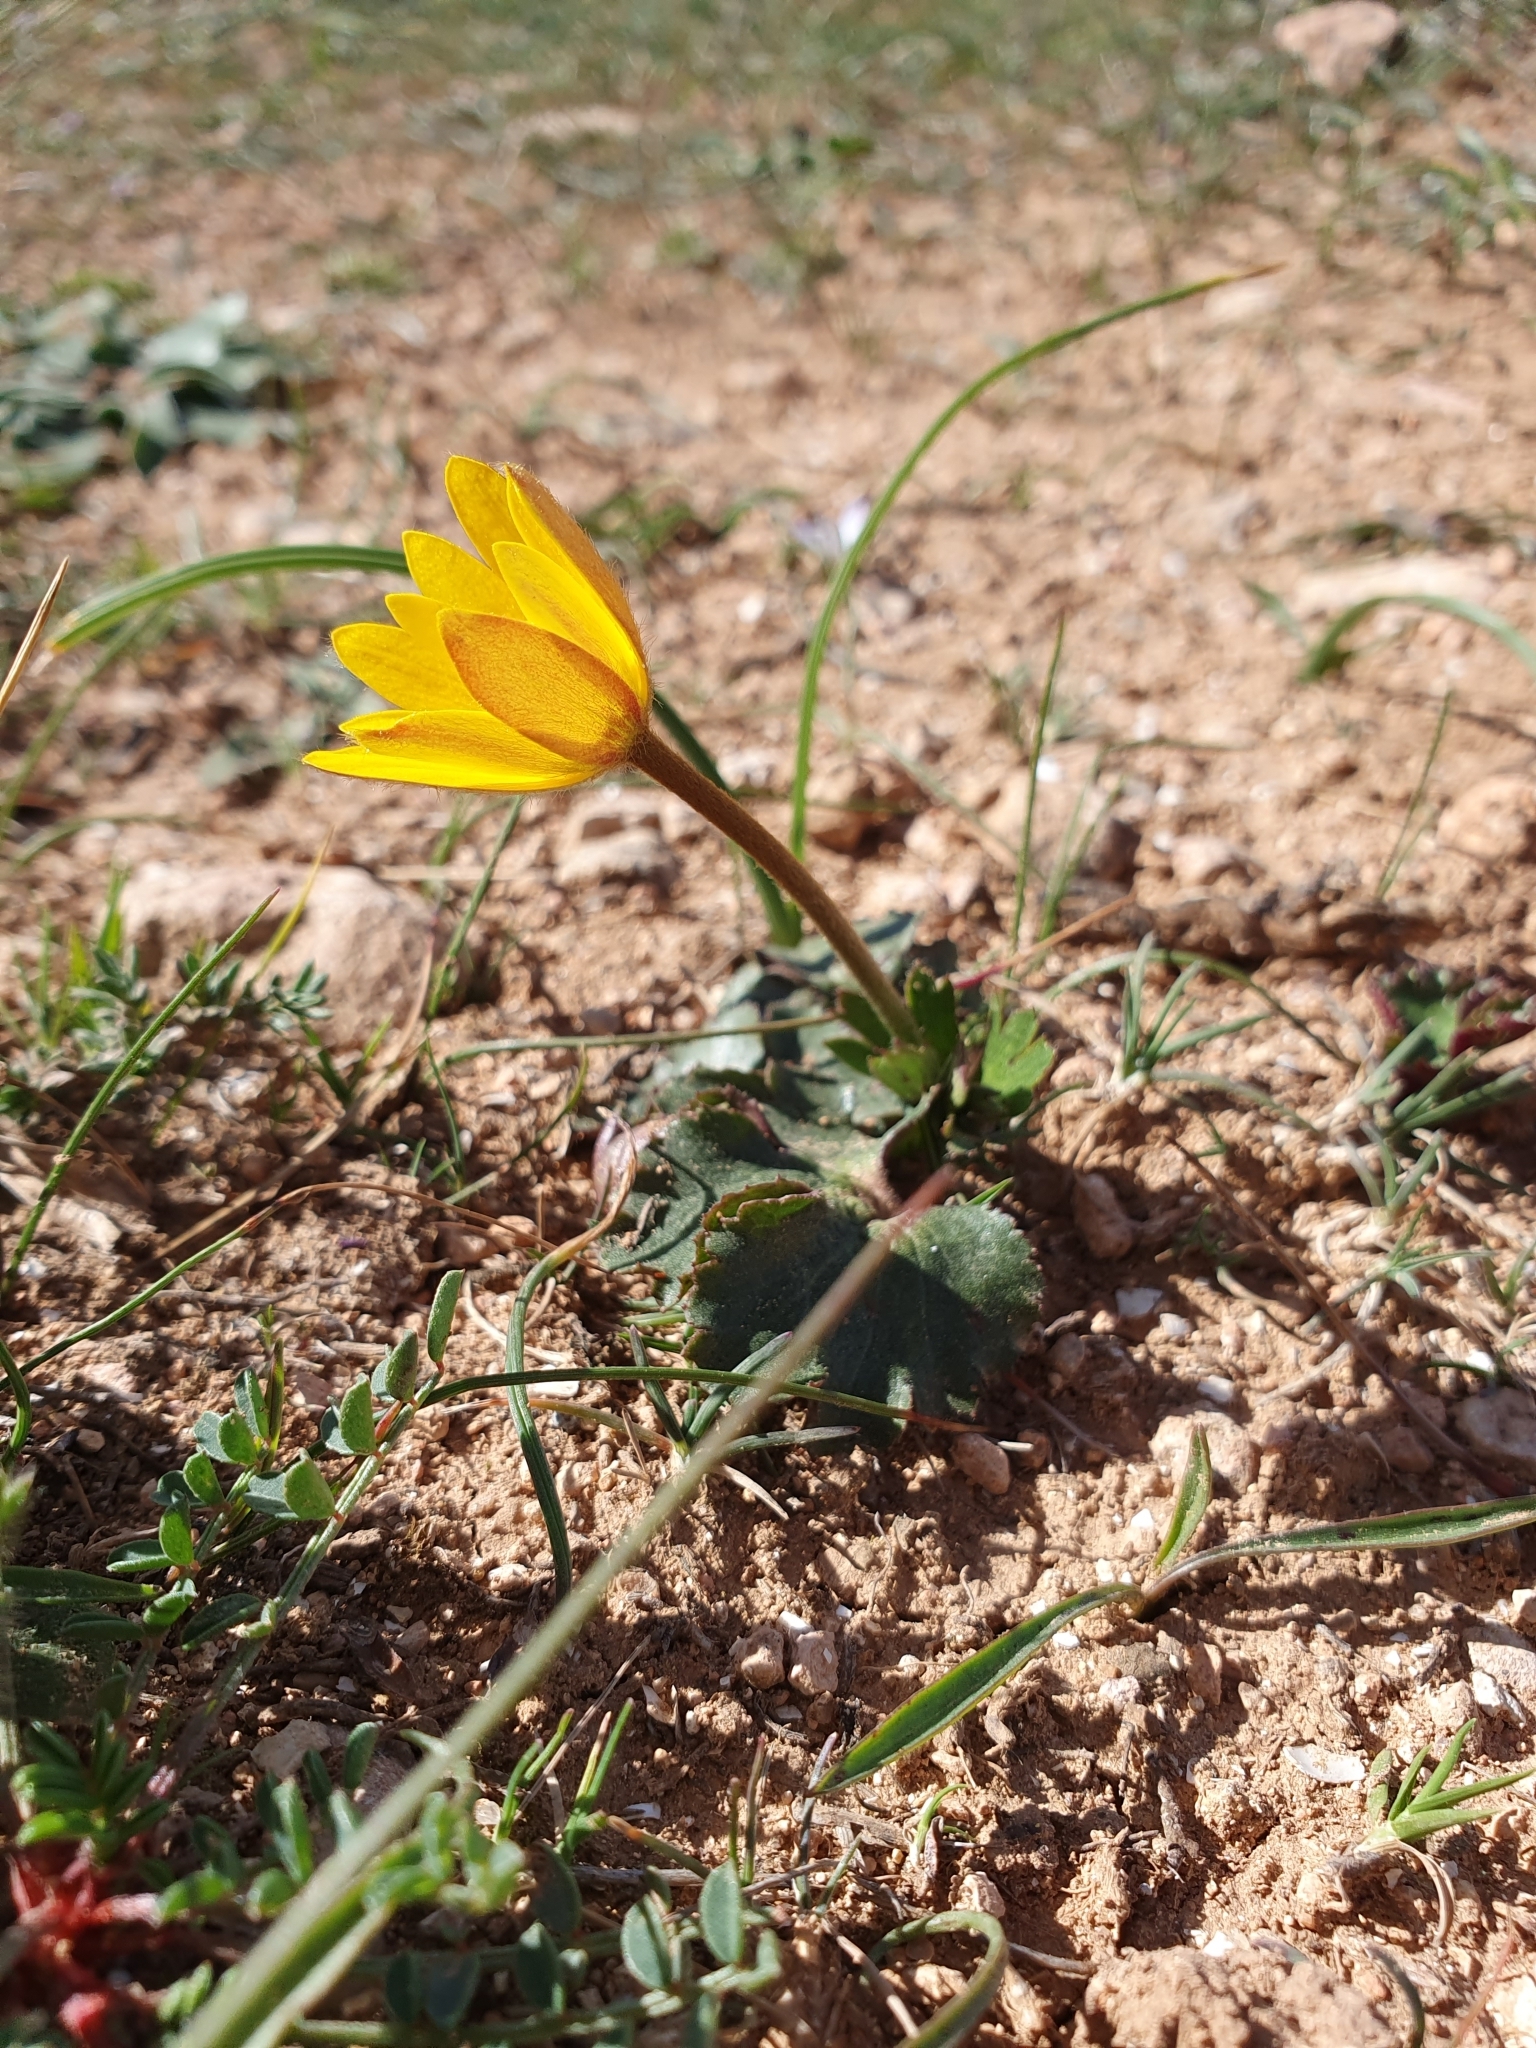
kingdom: Plantae
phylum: Tracheophyta
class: Magnoliopsida
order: Ranunculales
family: Ranunculaceae
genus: Anemone
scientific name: Anemone palmata
